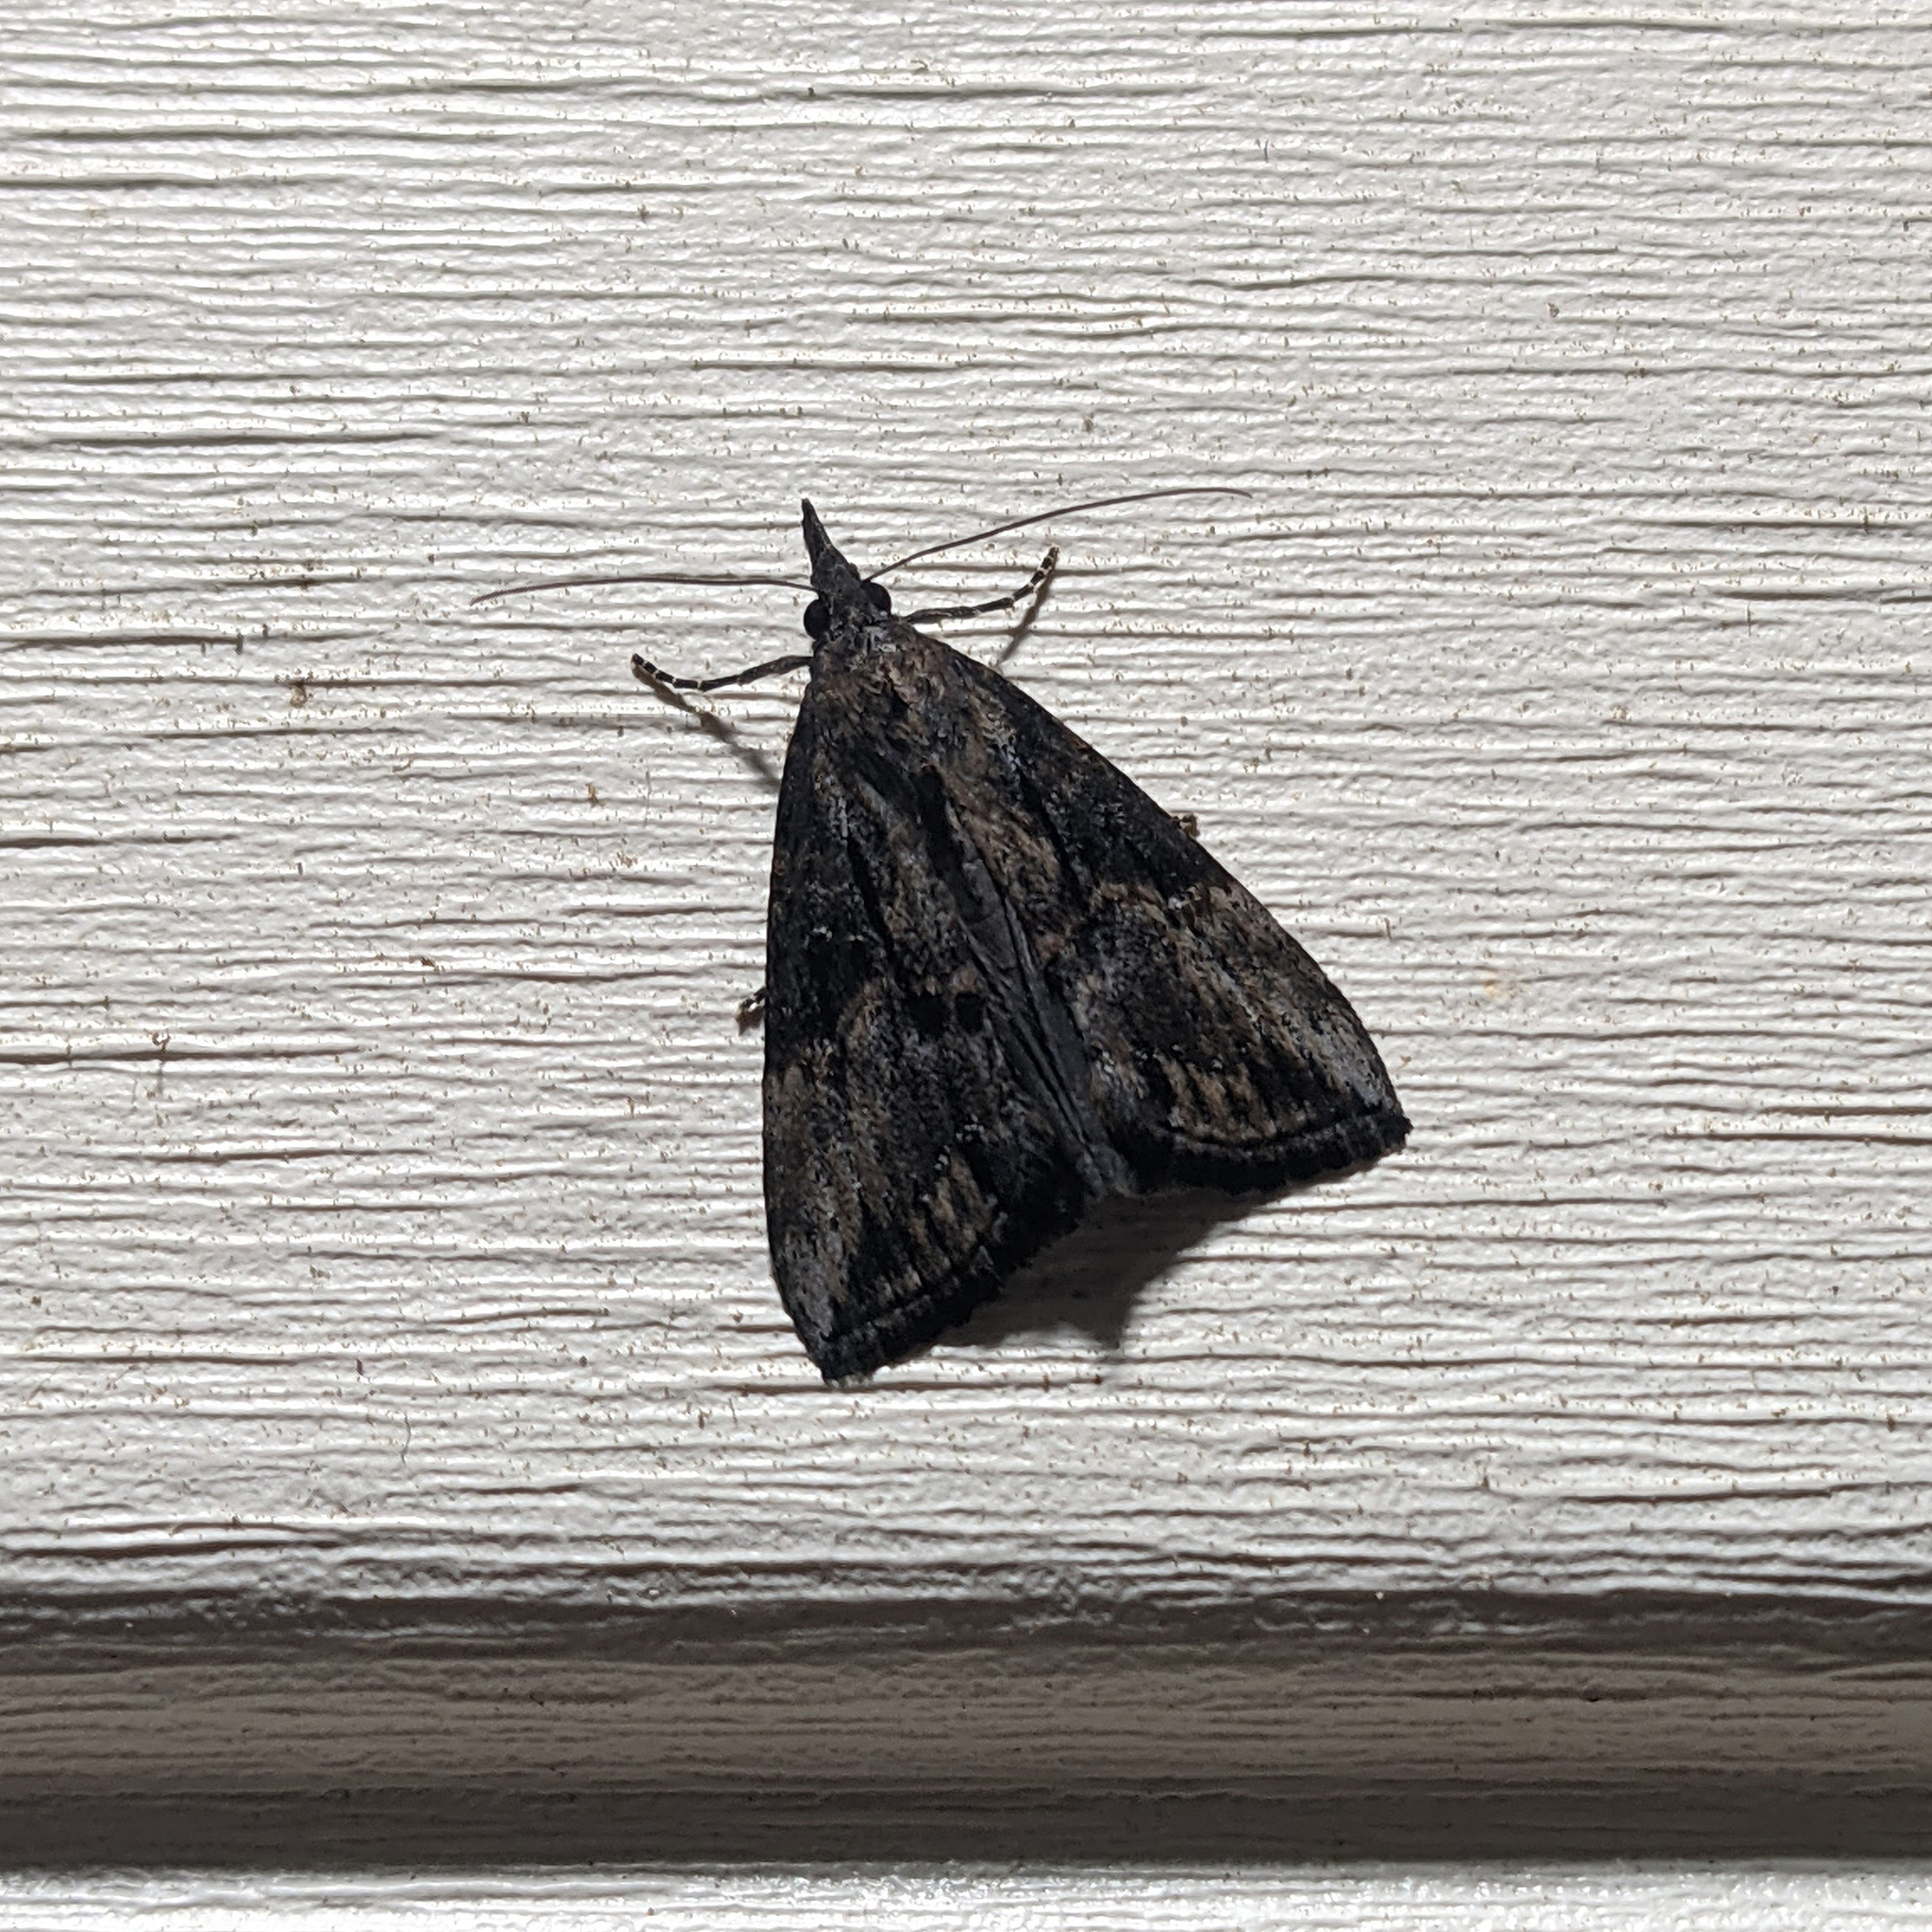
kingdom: Animalia
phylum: Arthropoda
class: Insecta
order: Lepidoptera
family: Erebidae
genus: Hypena
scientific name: Hypena scabra
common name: Green cloverworm
